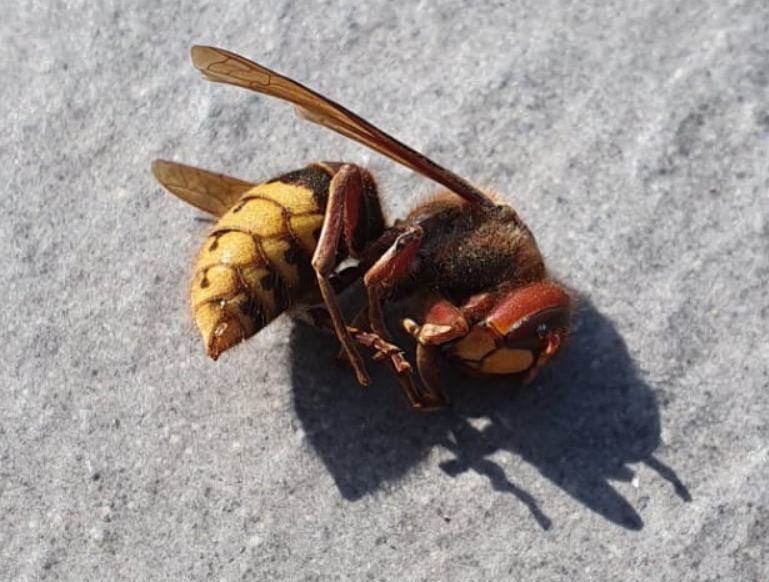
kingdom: Animalia
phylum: Arthropoda
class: Insecta
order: Hymenoptera
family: Vespidae
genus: Vespa
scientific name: Vespa crabro
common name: Hornet
